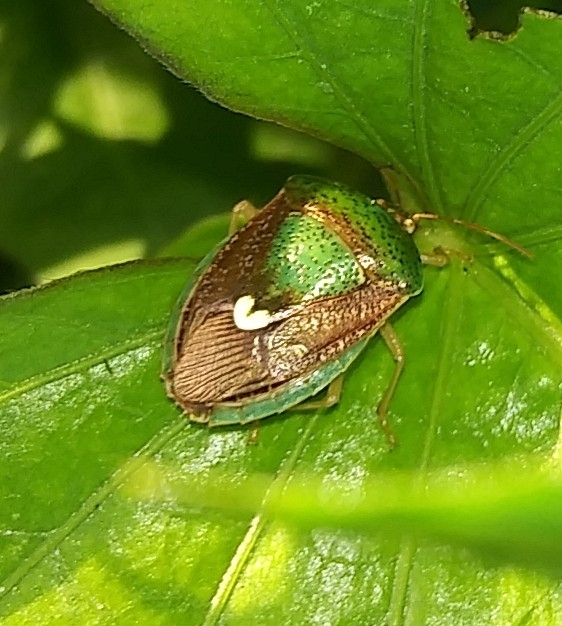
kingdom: Animalia
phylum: Arthropoda
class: Insecta
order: Hemiptera
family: Pentatomidae
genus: Edessa
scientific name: Edessa bifida
